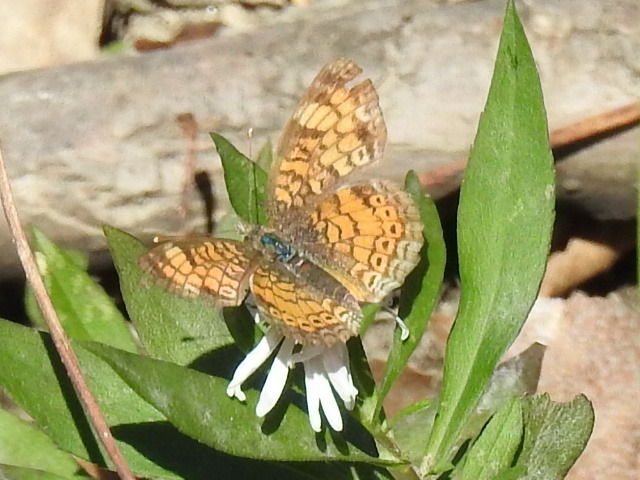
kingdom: Animalia
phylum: Arthropoda
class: Insecta
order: Lepidoptera
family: Nymphalidae
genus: Phyciodes
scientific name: Phyciodes tharos
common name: Pearl crescent
